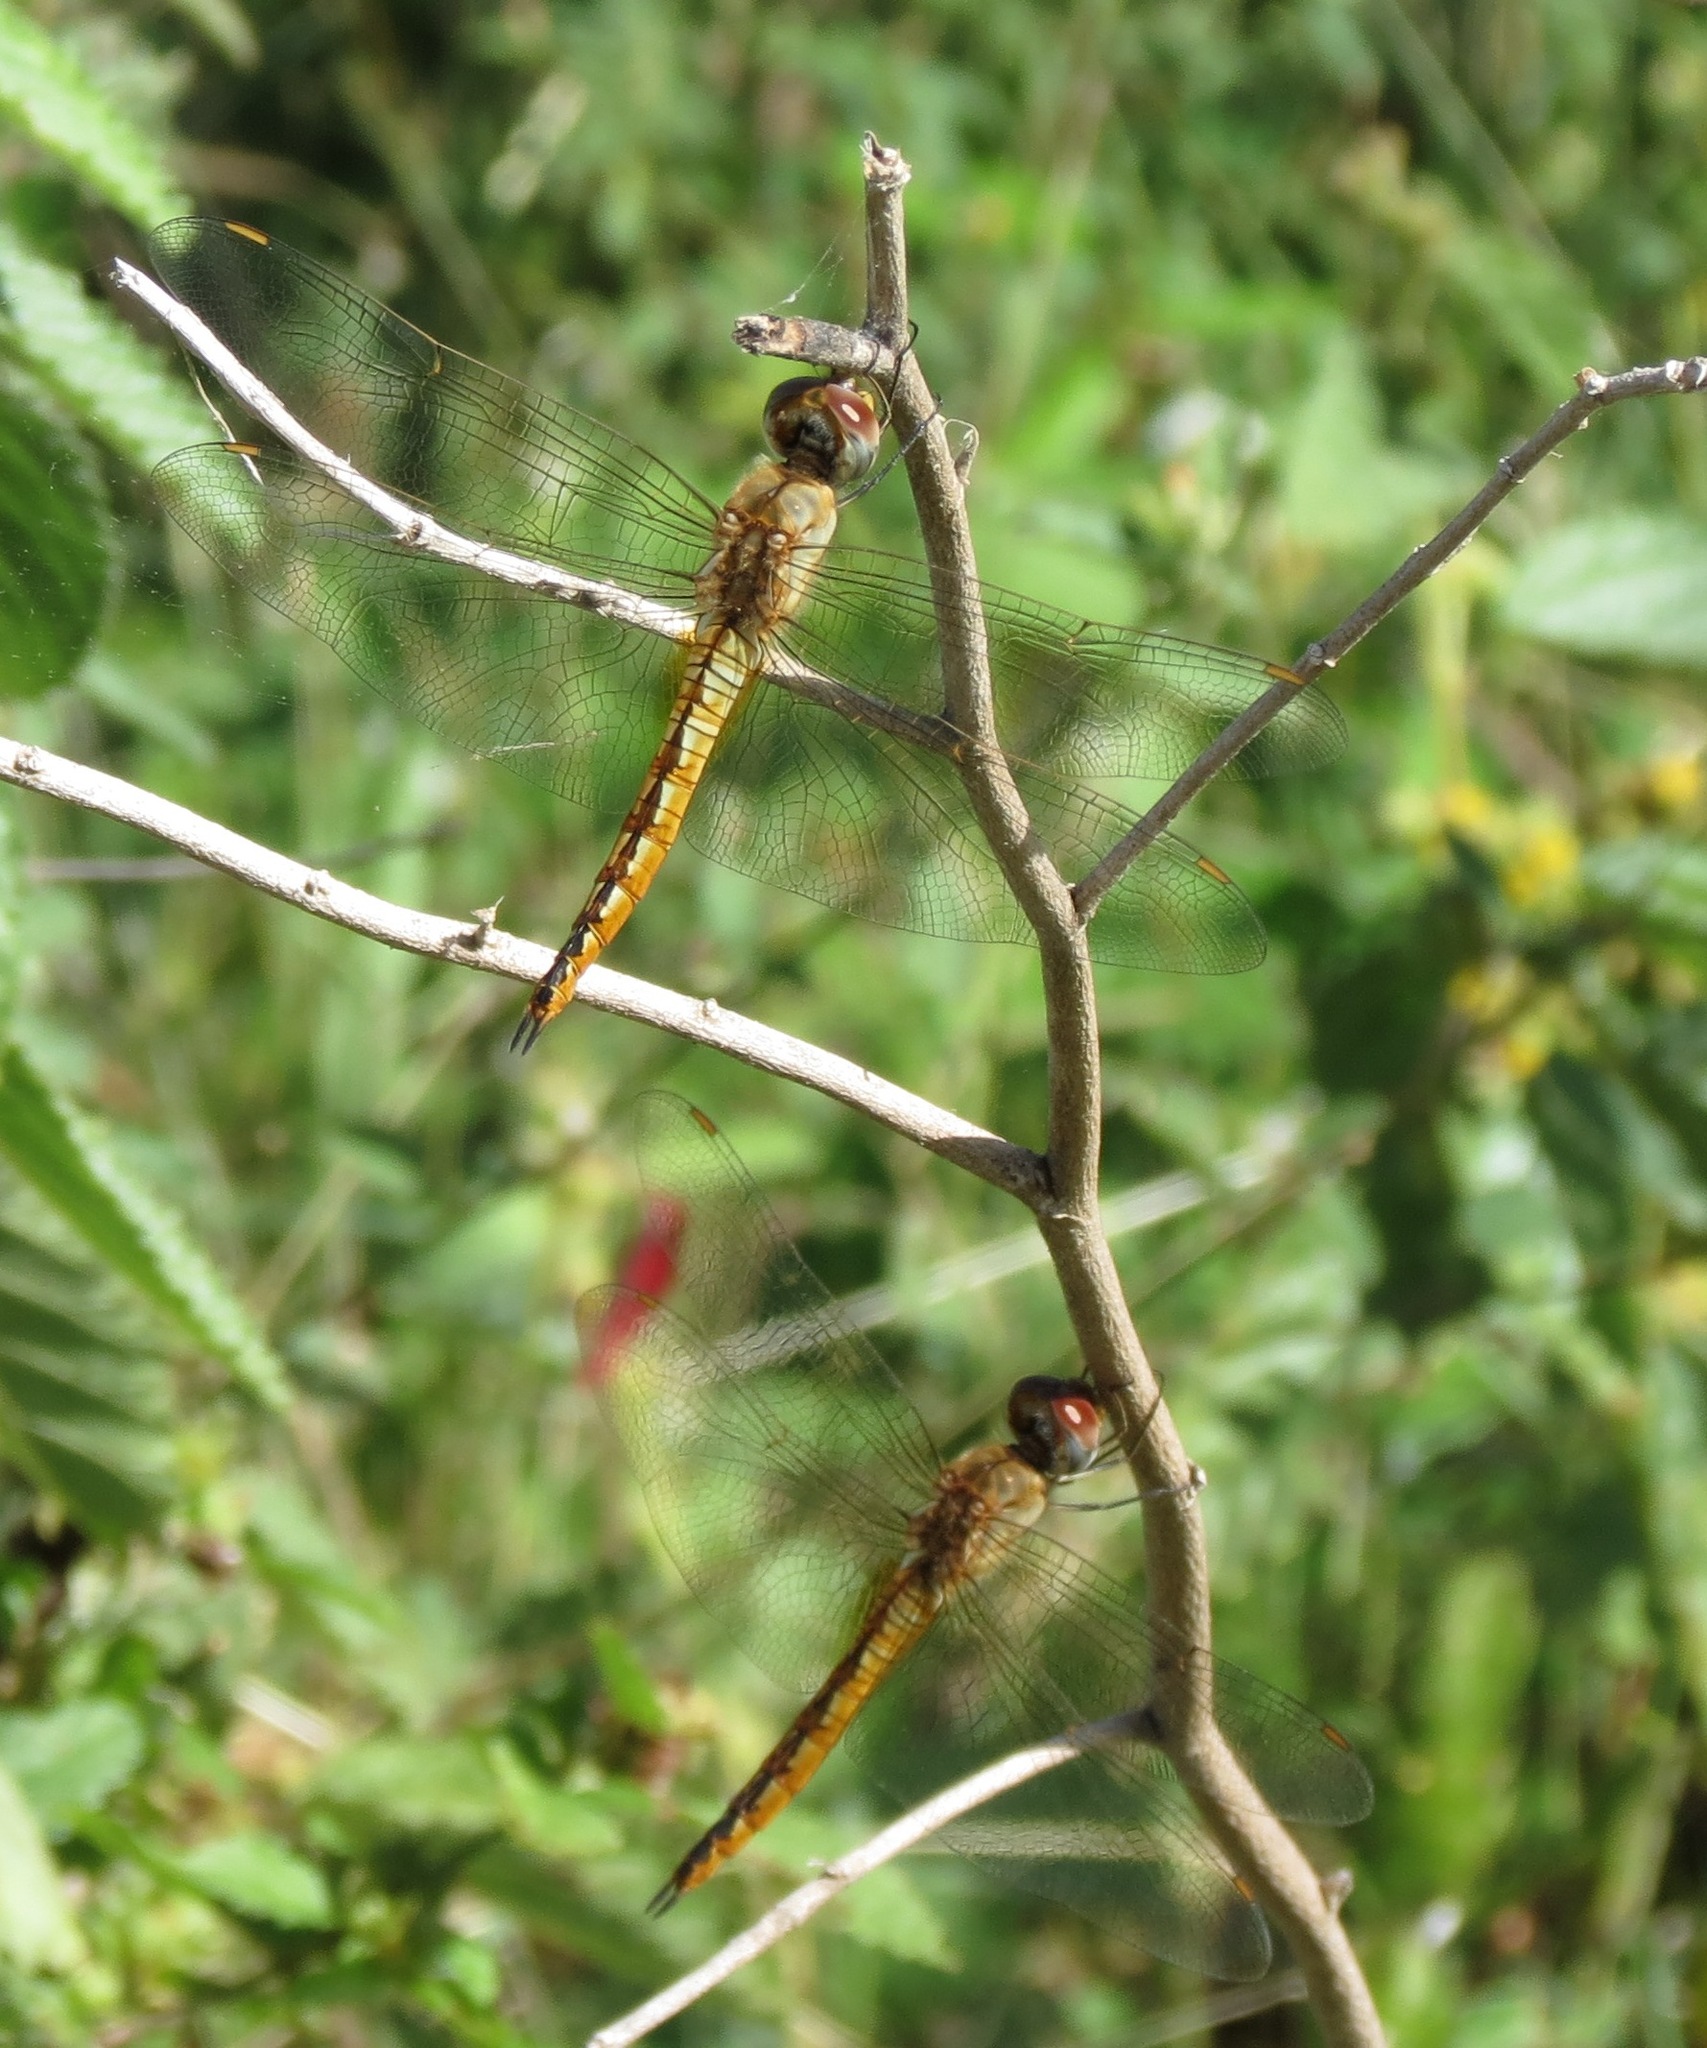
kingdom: Animalia
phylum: Arthropoda
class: Insecta
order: Odonata
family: Libellulidae
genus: Pantala
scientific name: Pantala flavescens
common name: Wandering glider
